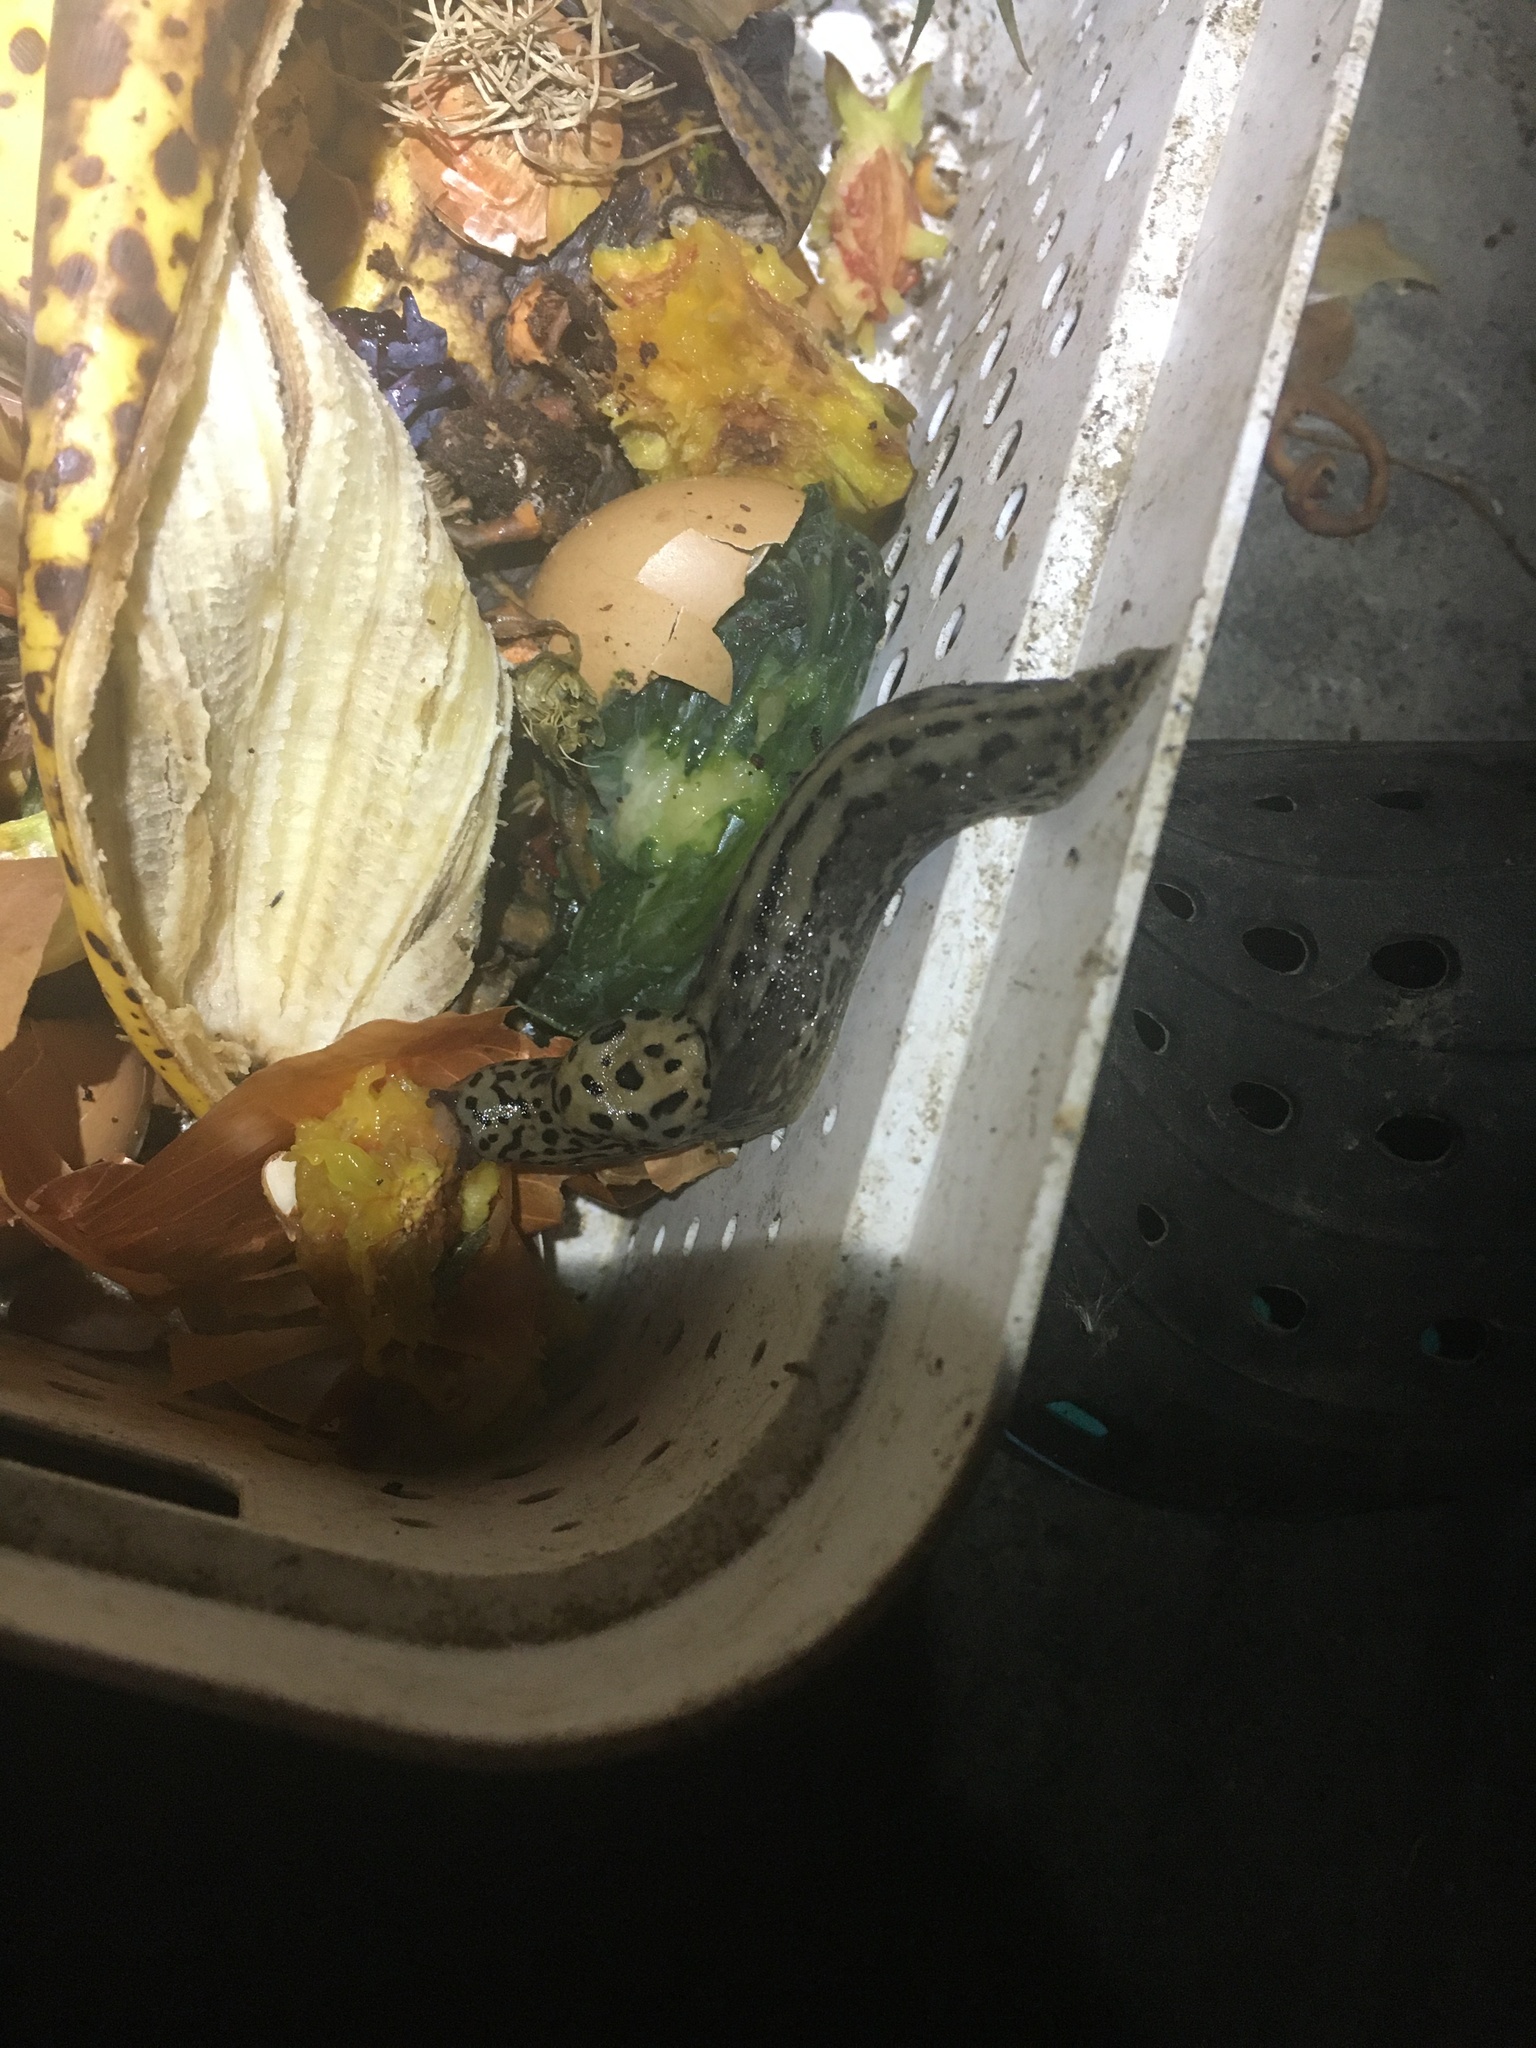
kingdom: Animalia
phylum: Mollusca
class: Gastropoda
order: Stylommatophora
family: Limacidae
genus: Limax
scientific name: Limax maximus
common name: Great grey slug
